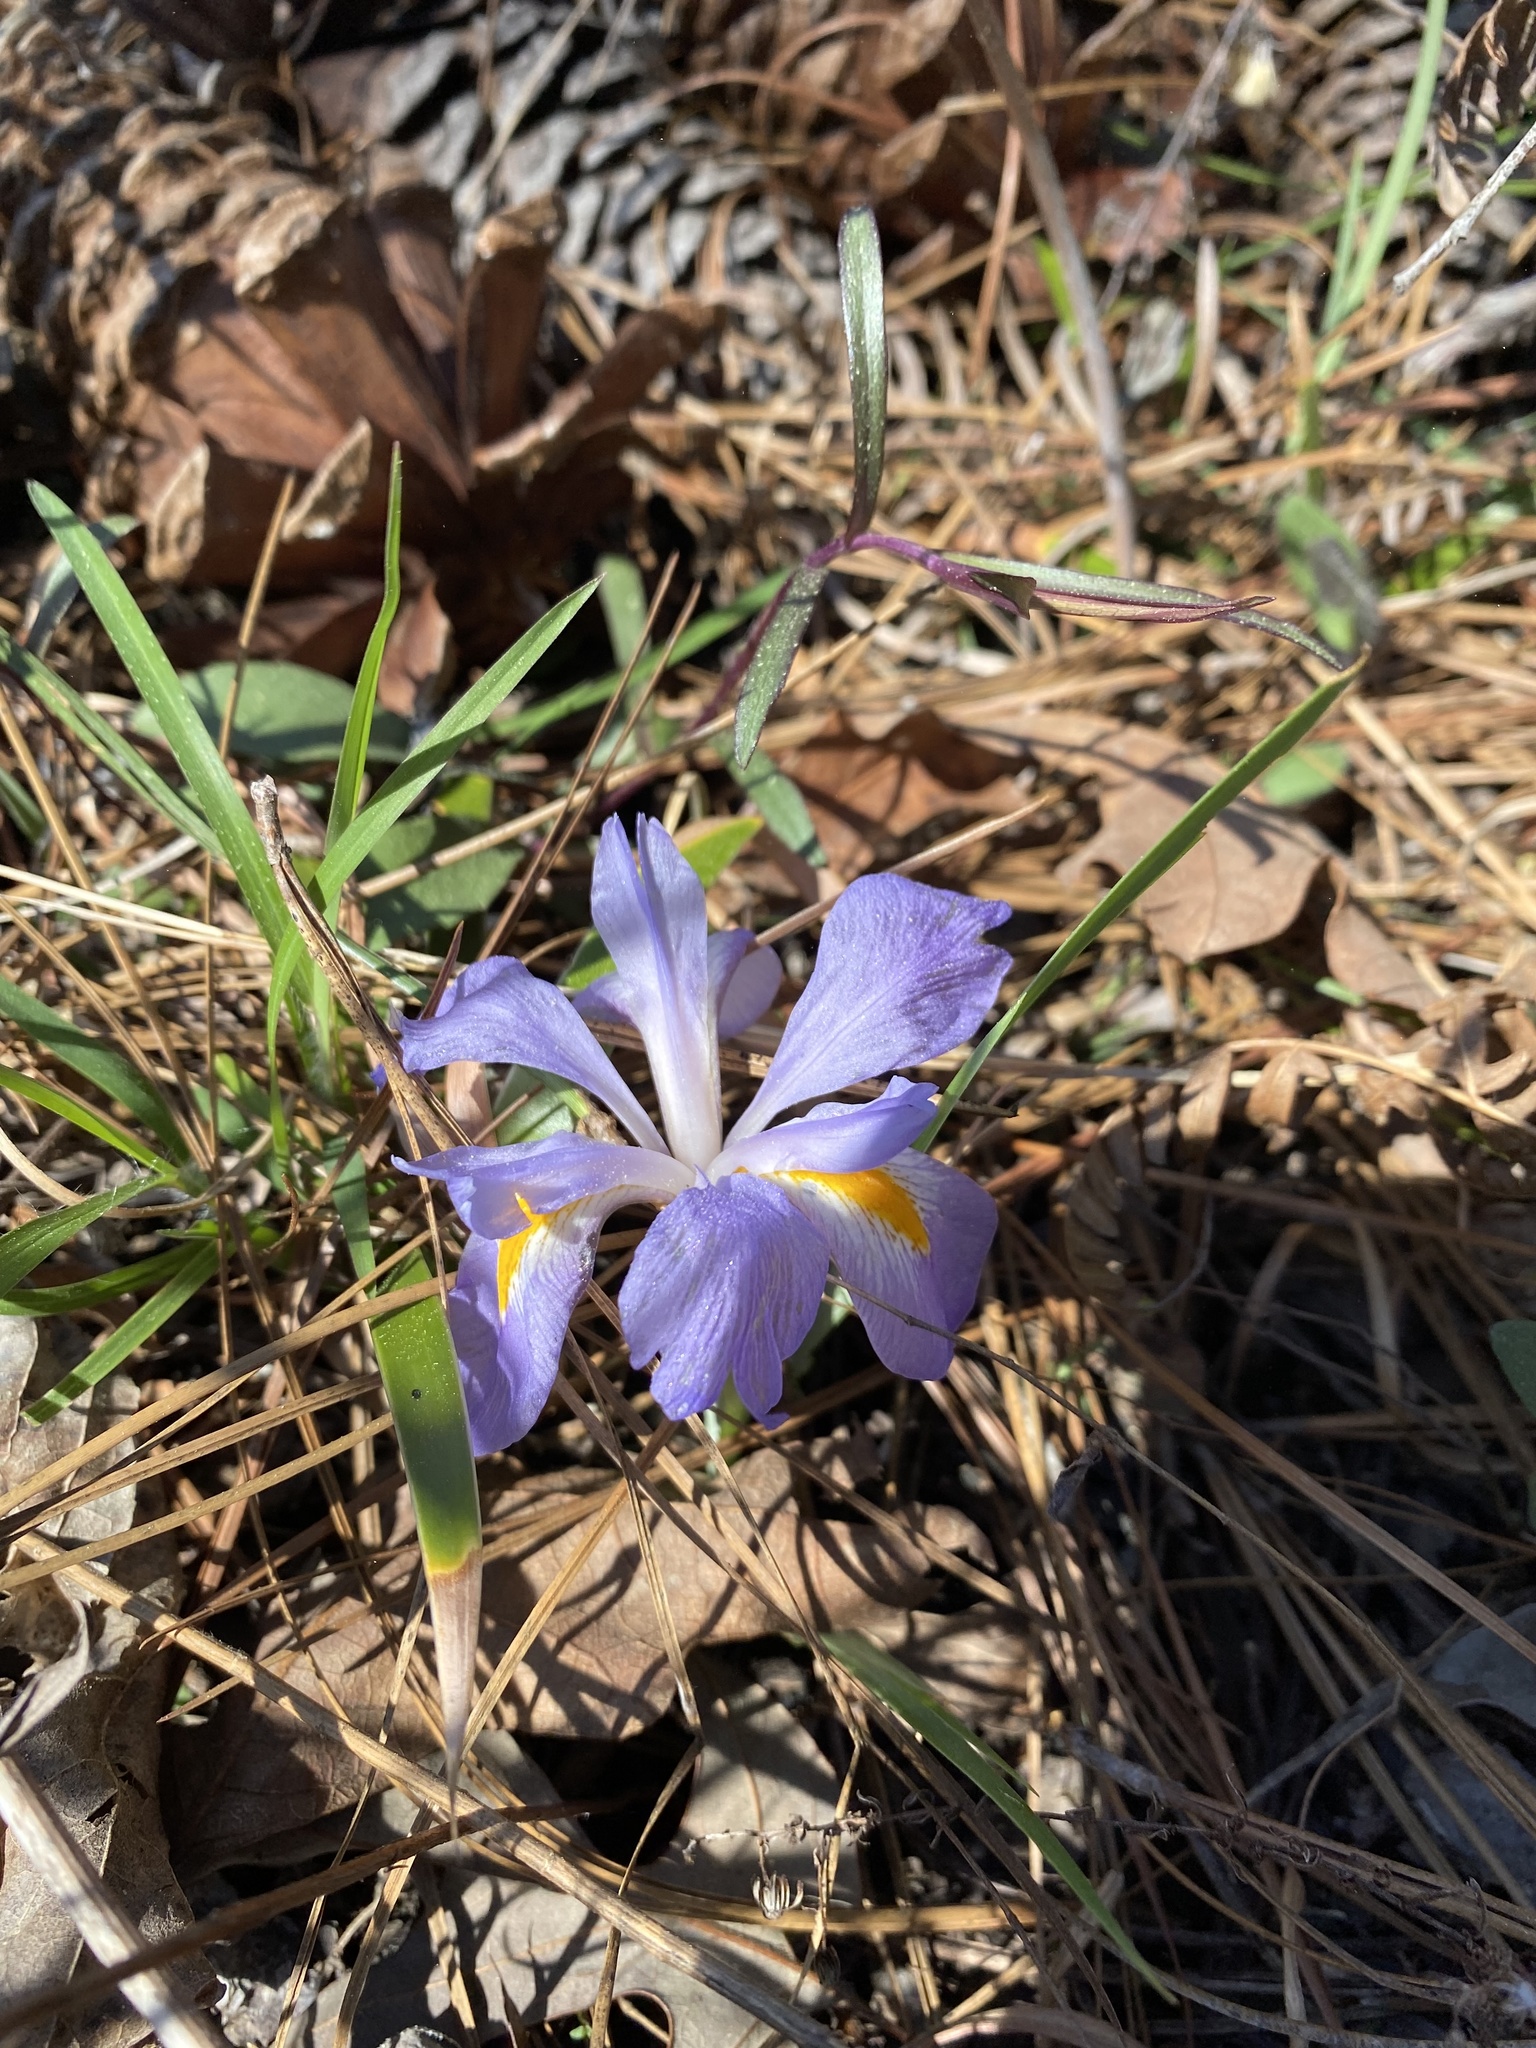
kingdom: Plantae
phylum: Tracheophyta
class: Liliopsida
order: Asparagales
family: Iridaceae
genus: Iris
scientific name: Iris verna
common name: Dwarf iris
